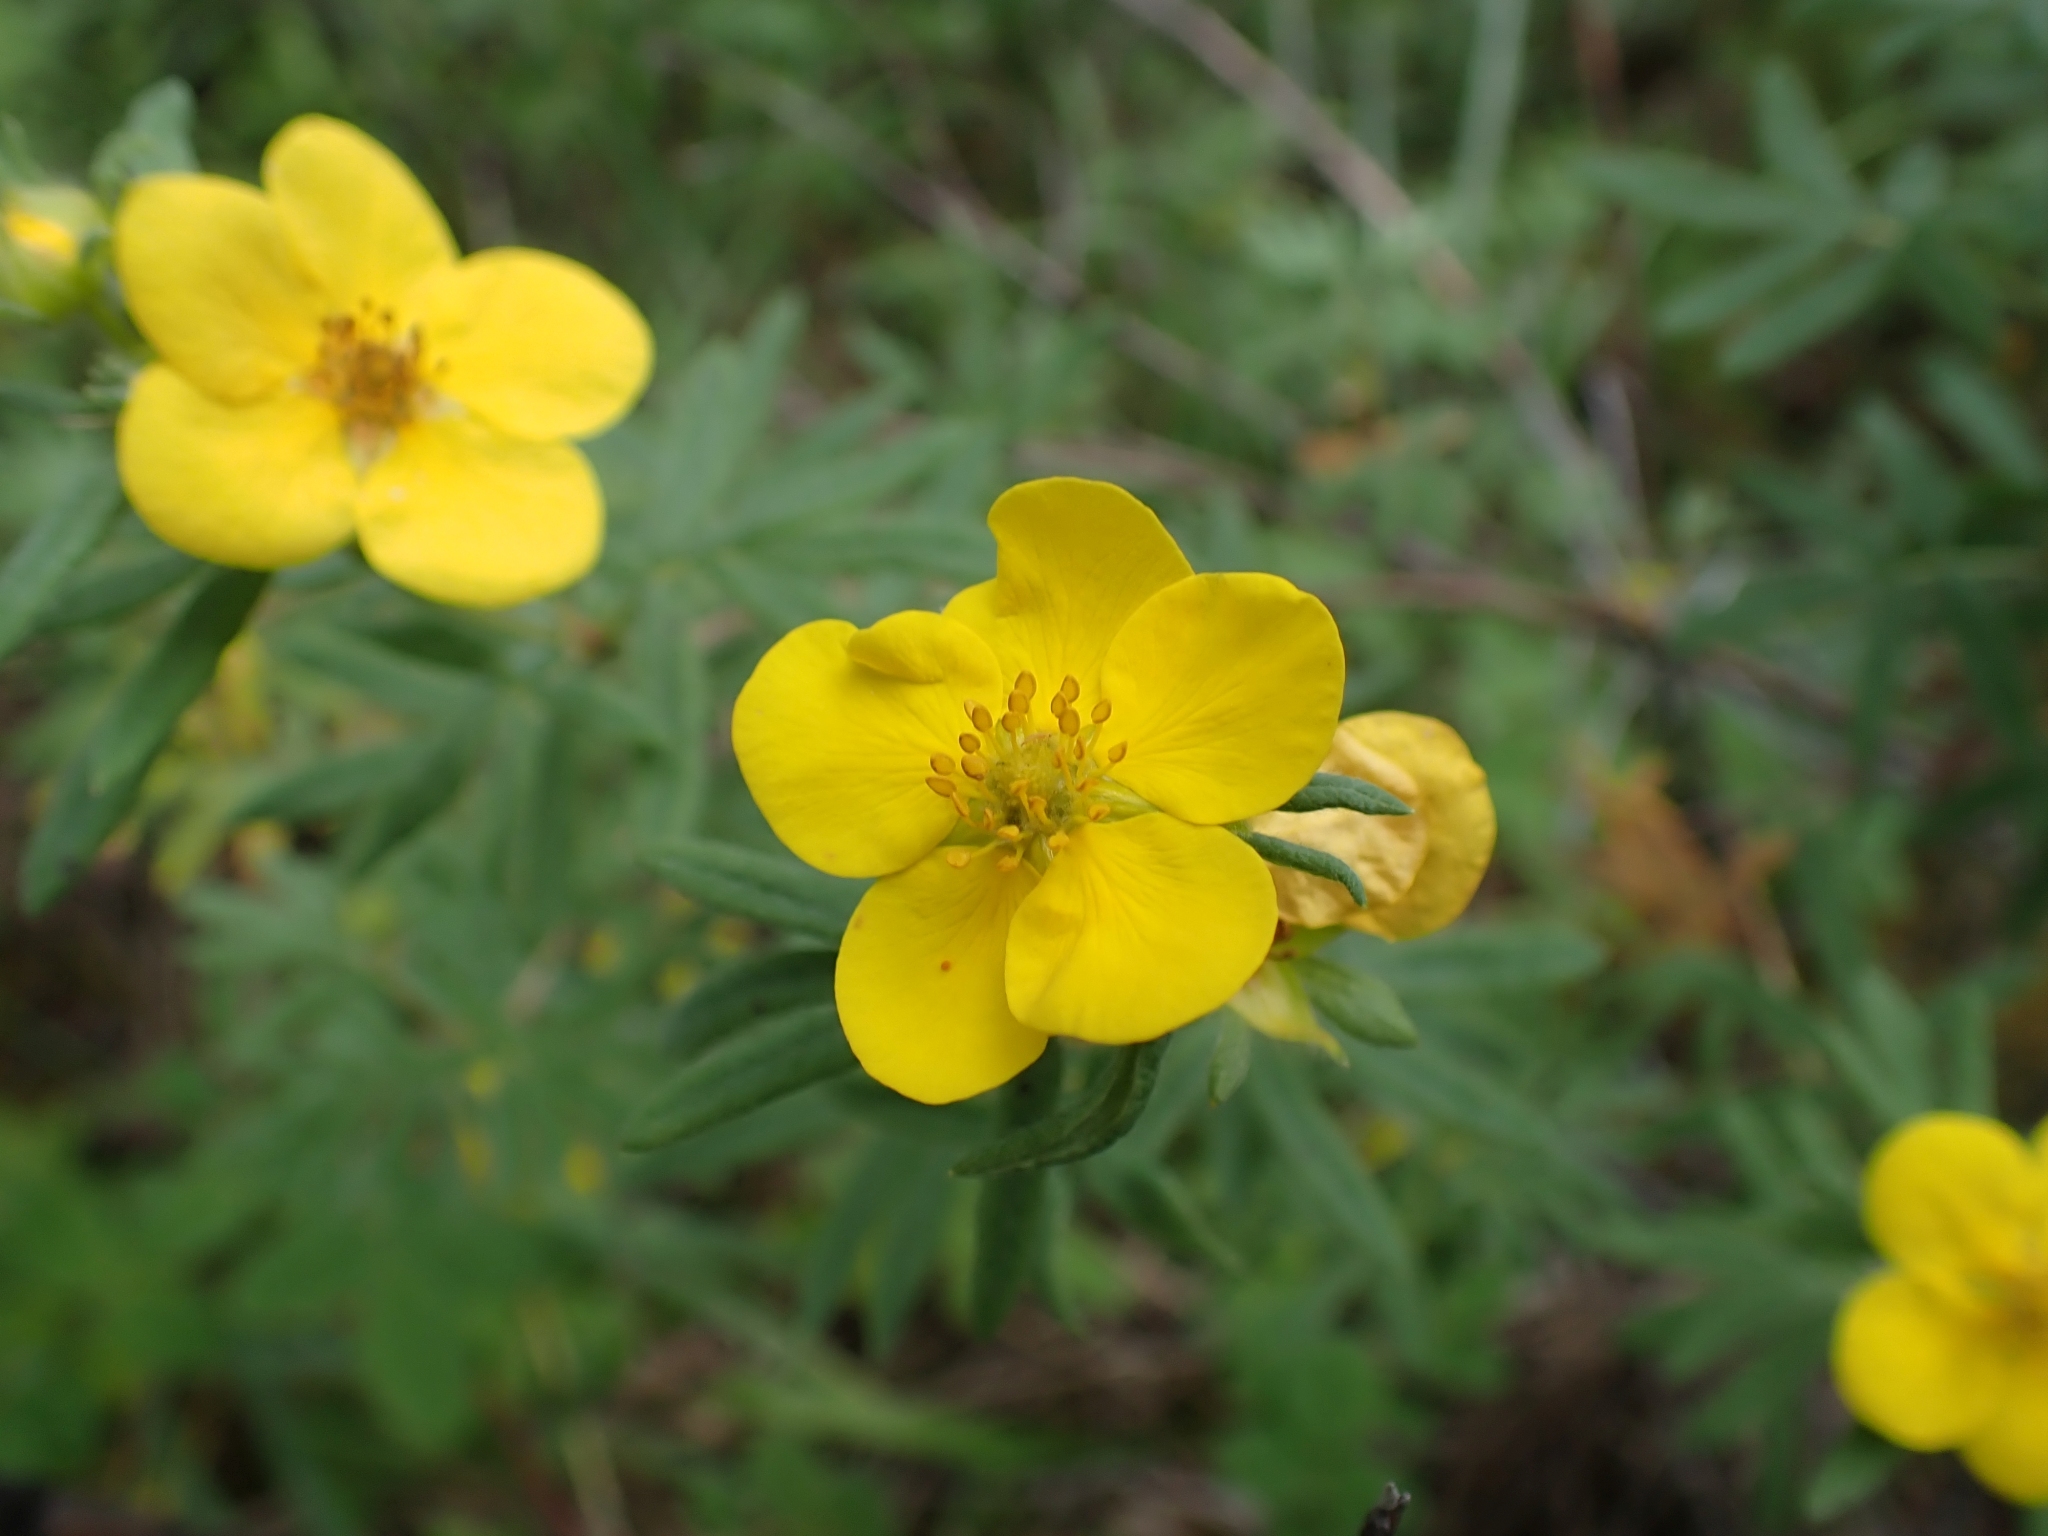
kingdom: Plantae
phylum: Tracheophyta
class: Magnoliopsida
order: Rosales
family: Rosaceae
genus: Dasiphora
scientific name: Dasiphora fruticosa
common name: Shrubby cinquefoil
